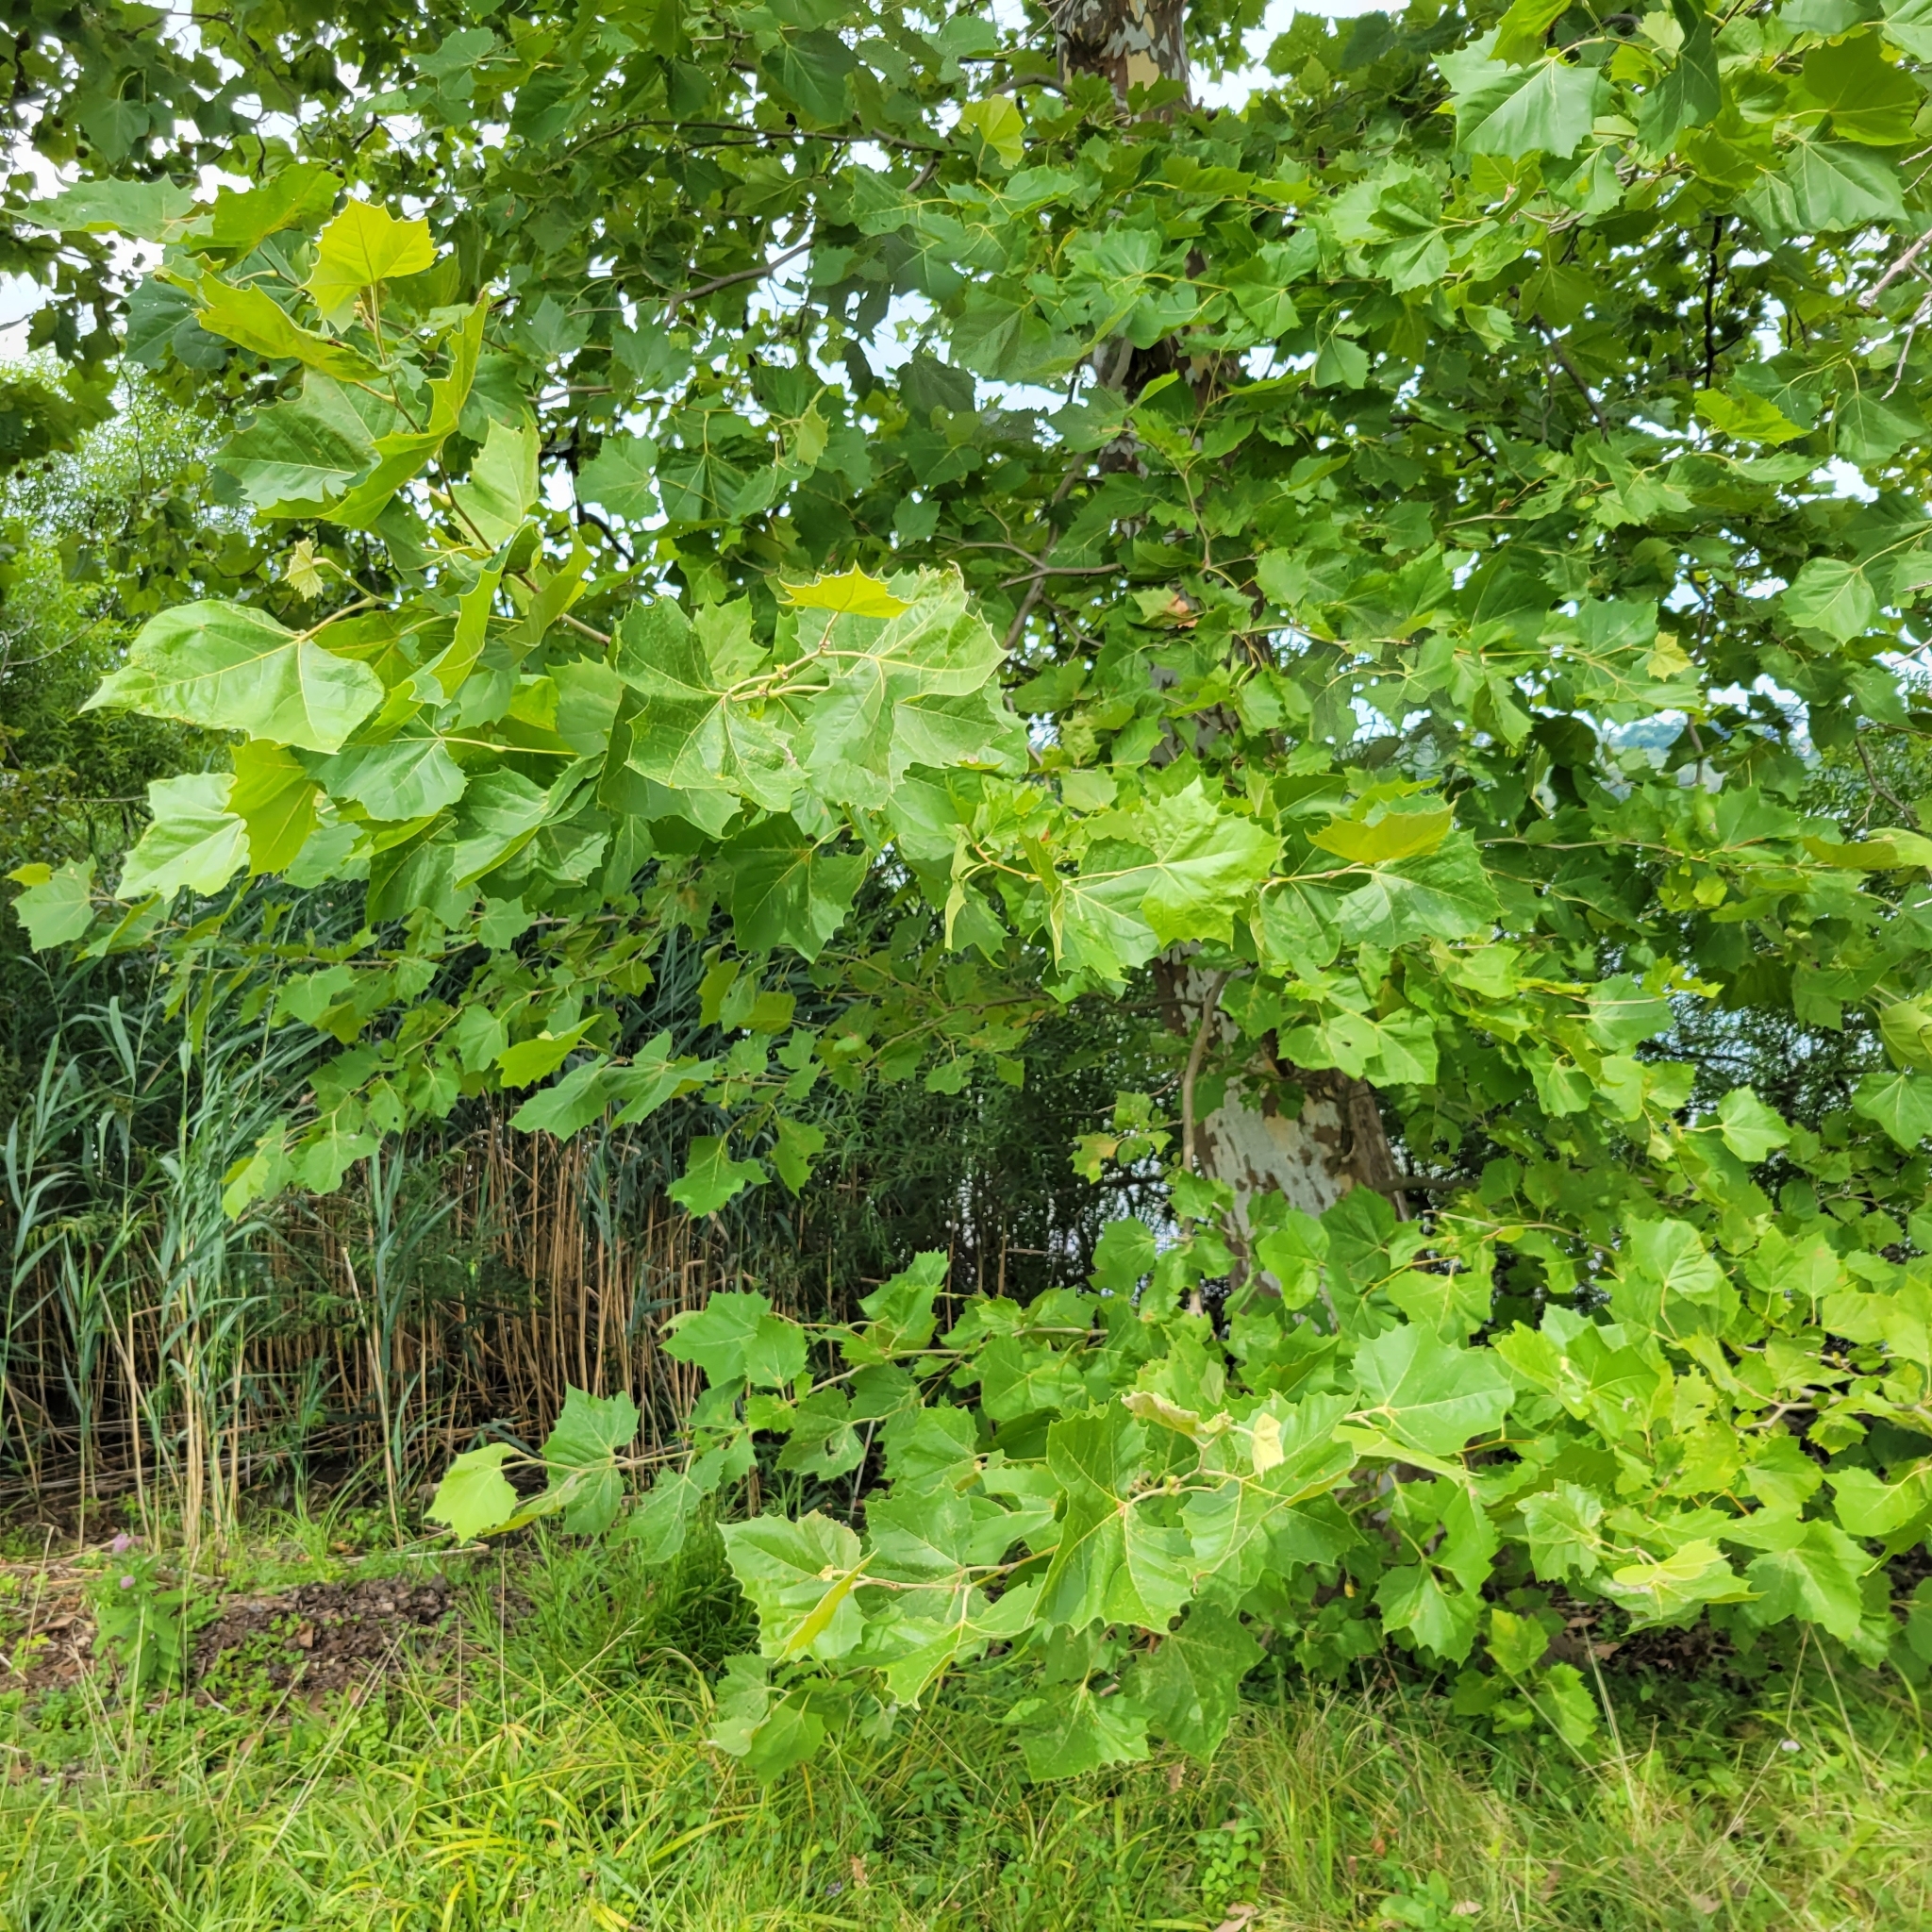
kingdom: Plantae
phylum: Tracheophyta
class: Magnoliopsida
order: Proteales
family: Platanaceae
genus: Platanus
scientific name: Platanus occidentalis
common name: American sycamore
